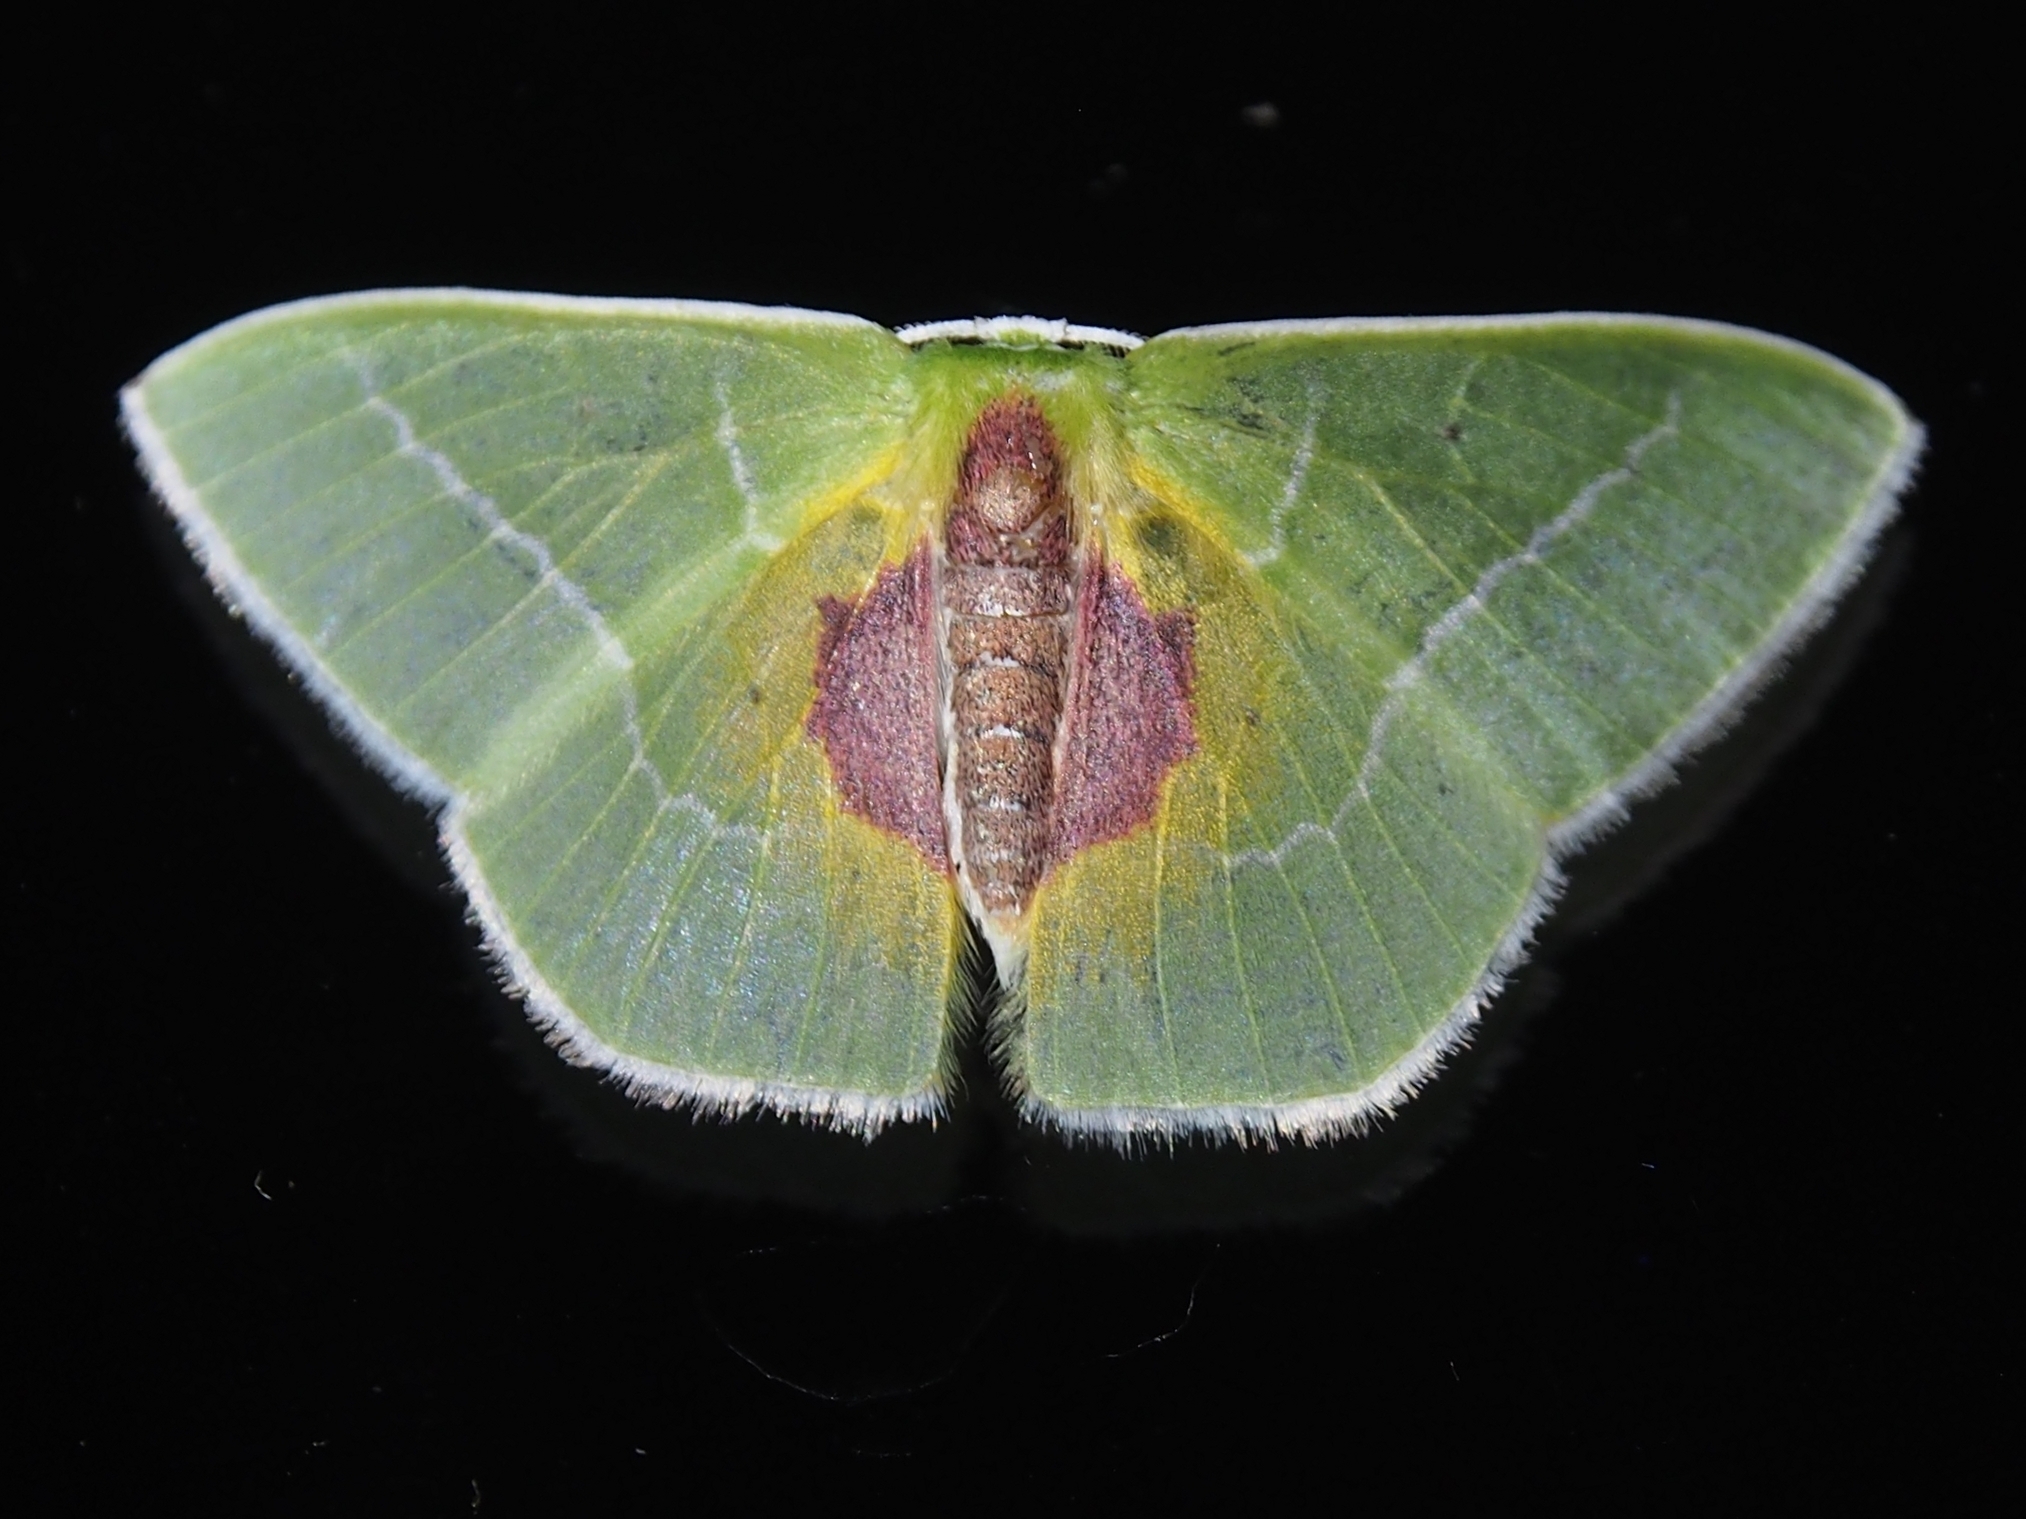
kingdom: Animalia
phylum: Arthropoda
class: Insecta
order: Lepidoptera
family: Geometridae
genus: Nemoria
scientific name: Nemoria astraea
